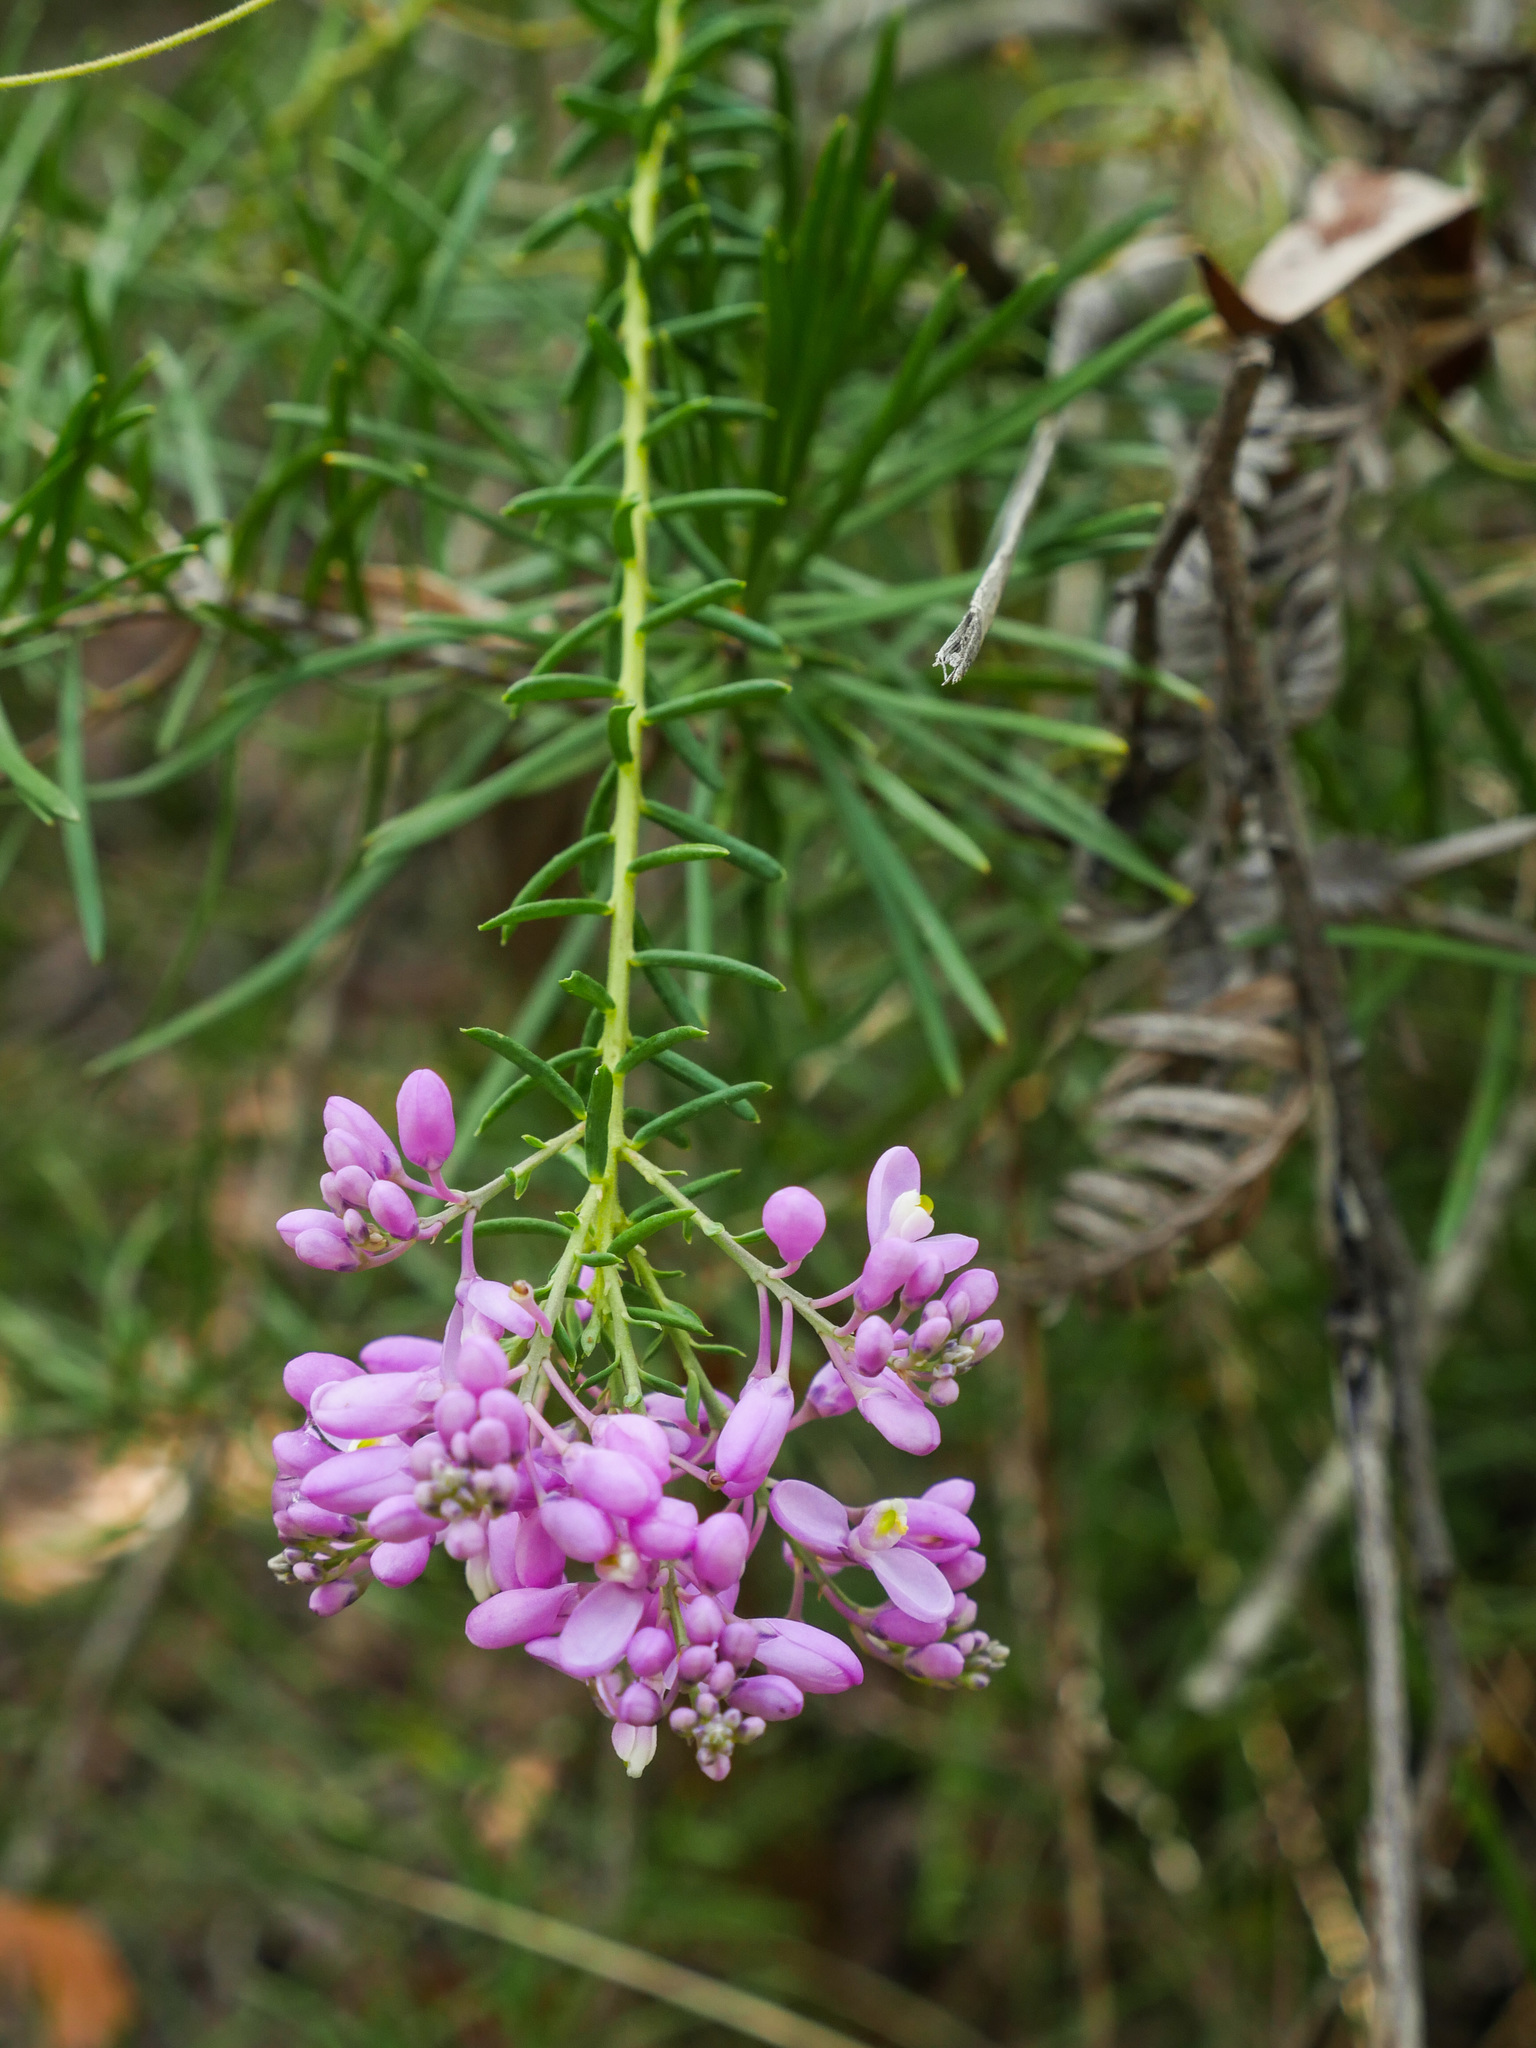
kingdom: Plantae
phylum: Tracheophyta
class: Magnoliopsida
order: Fabales
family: Polygalaceae
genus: Comesperma
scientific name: Comesperma ericinum
